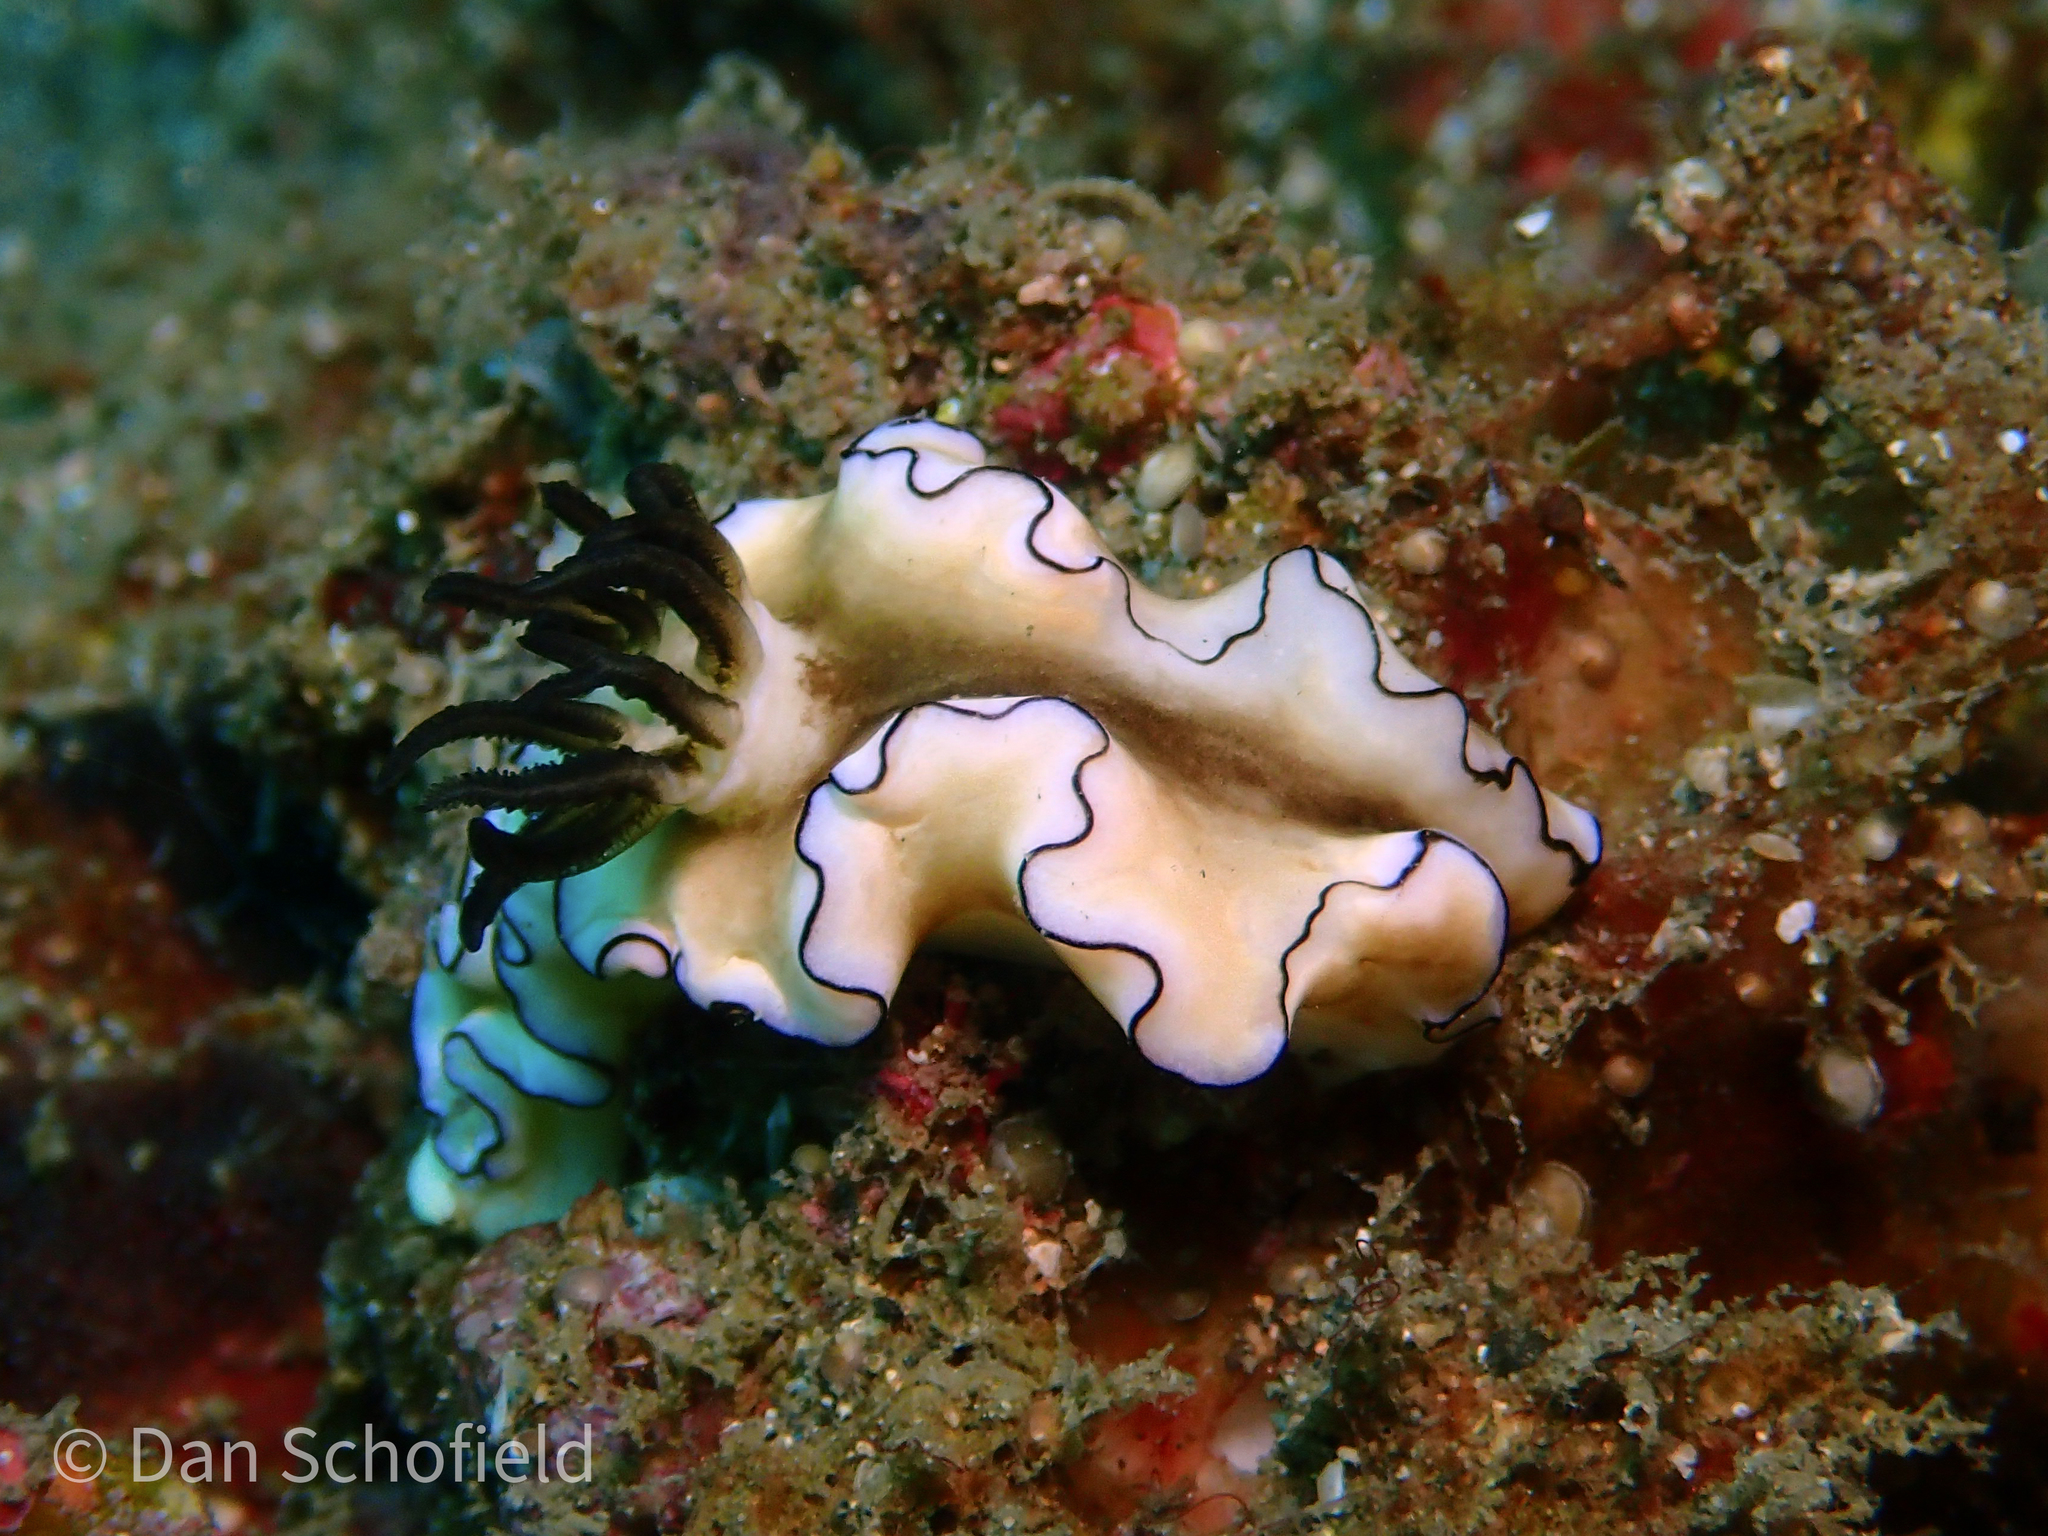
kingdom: Animalia
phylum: Mollusca
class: Gastropoda
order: Nudibranchia
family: Chromodorididae
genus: Doriprismatica
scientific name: Doriprismatica atromarginata
